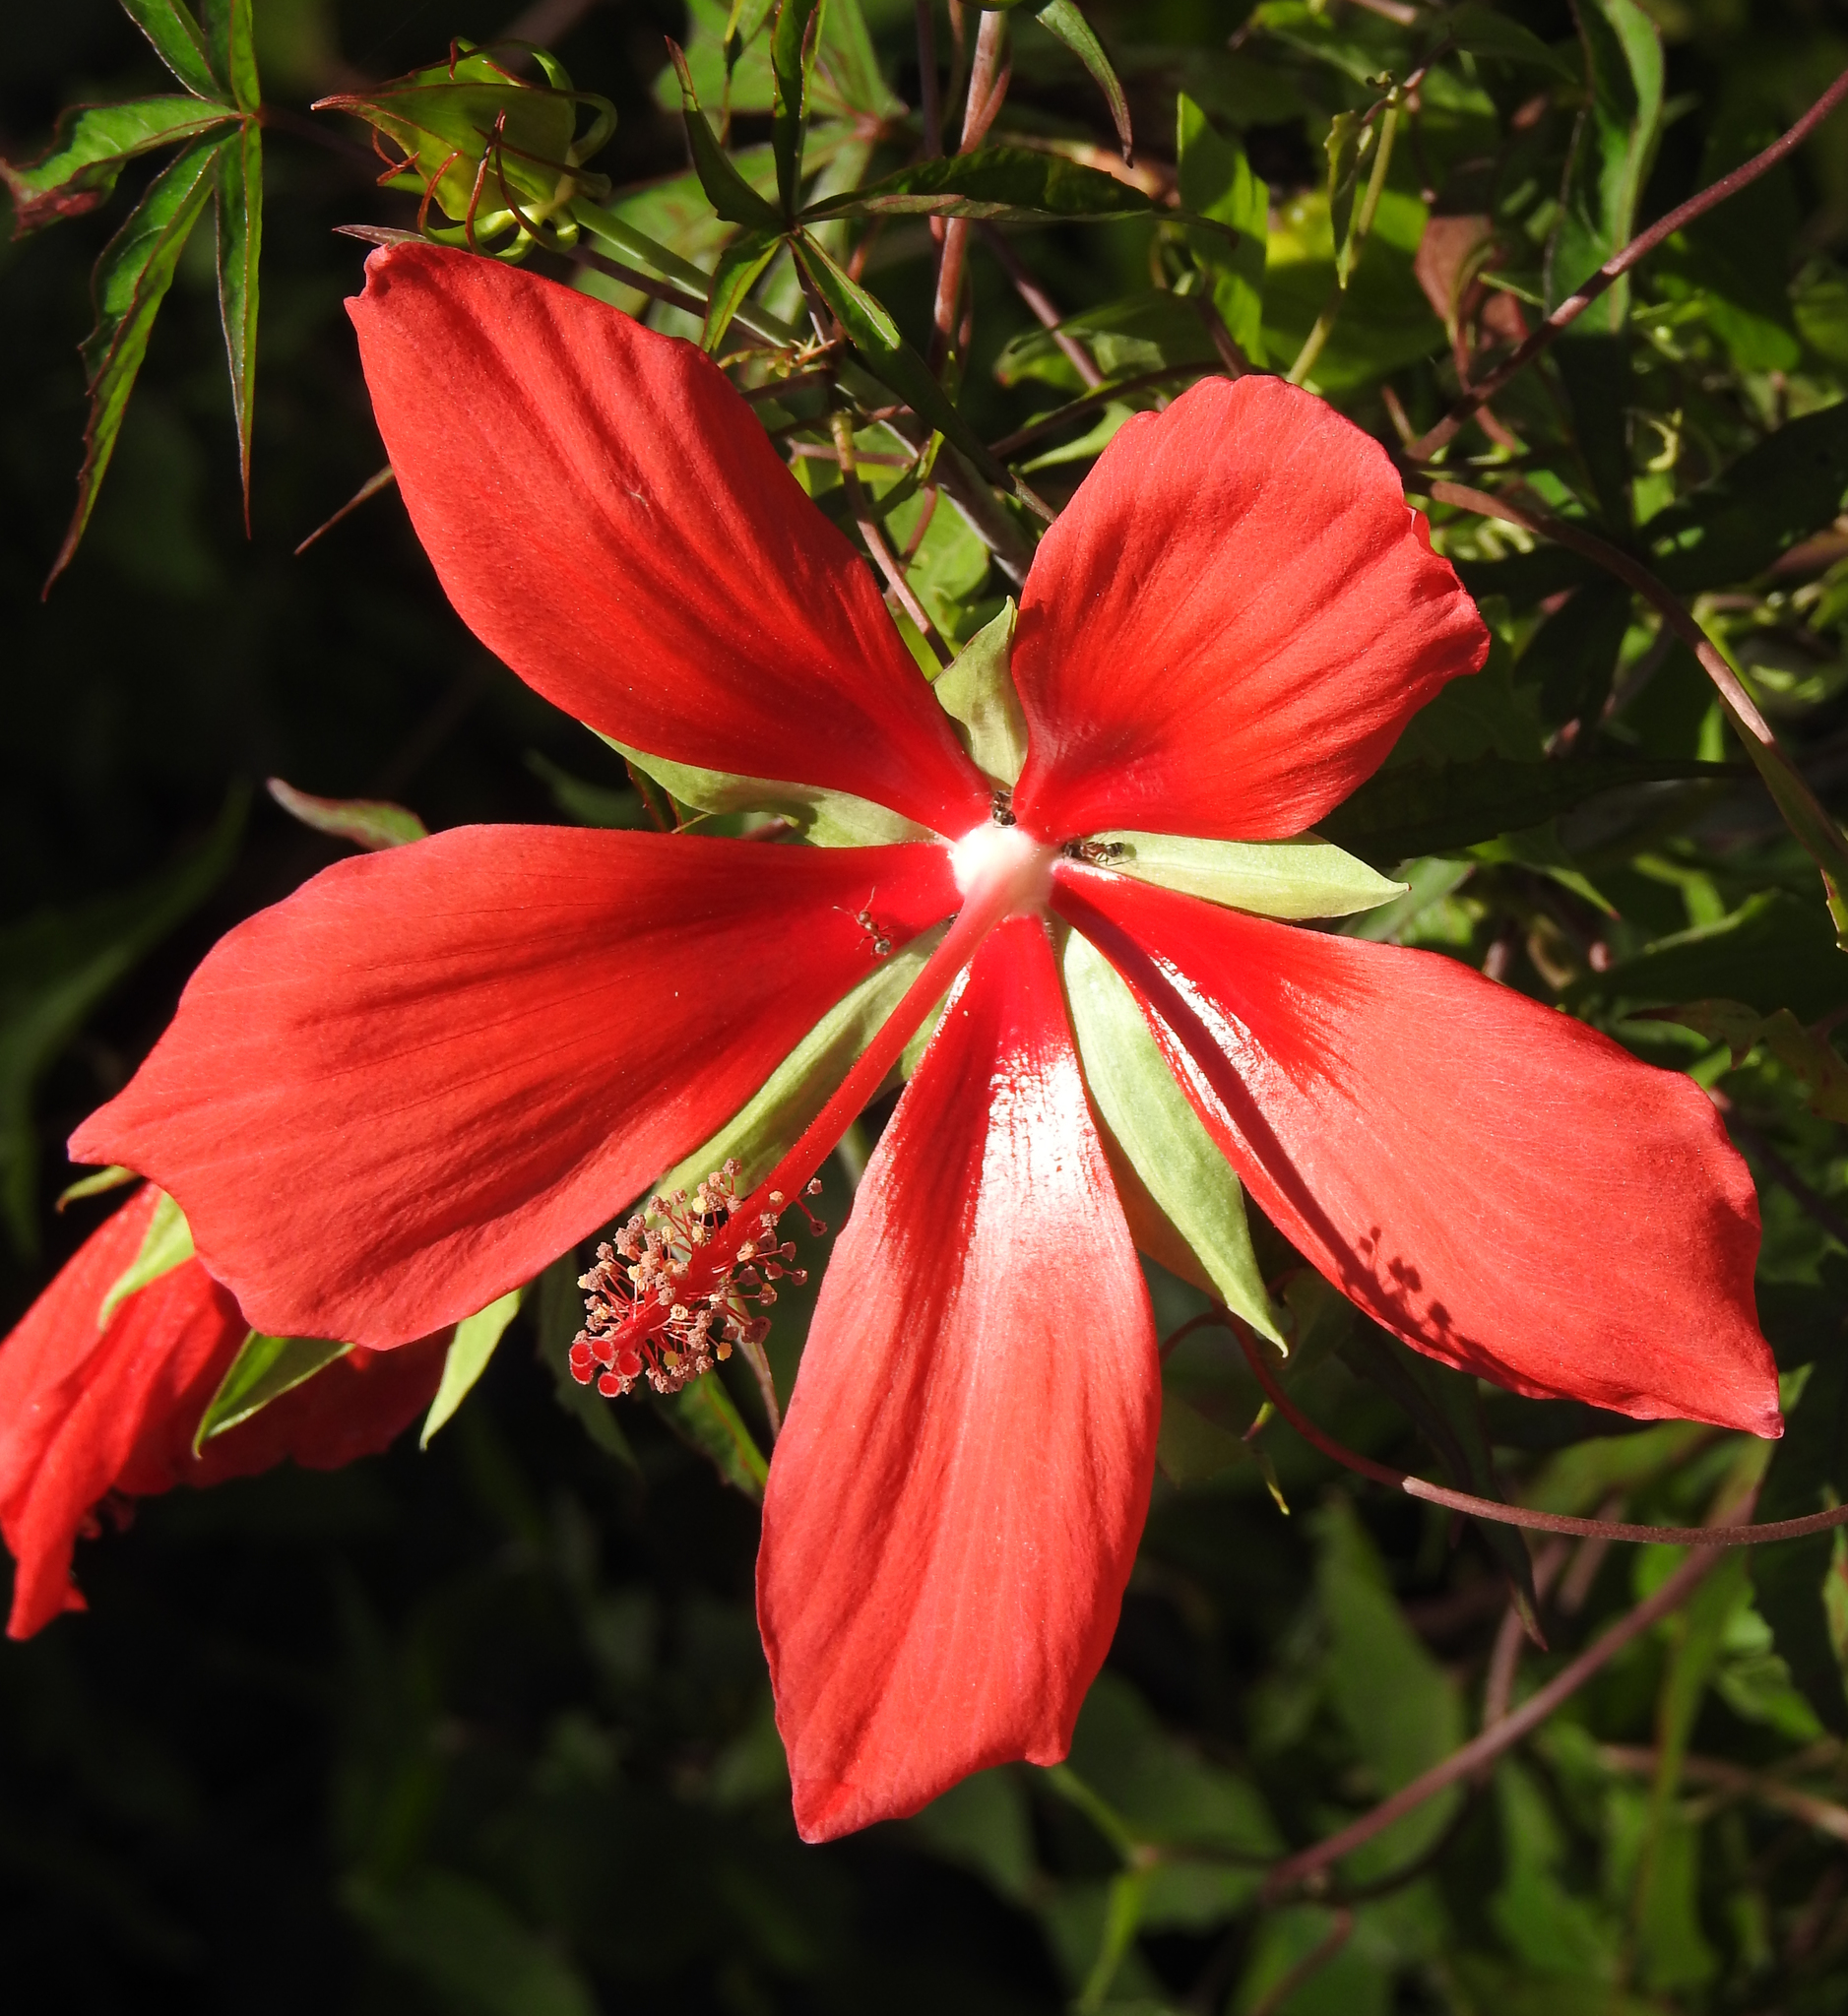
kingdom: Plantae
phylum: Tracheophyta
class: Magnoliopsida
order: Malvales
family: Malvaceae
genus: Hibiscus
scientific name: Hibiscus coccineus
